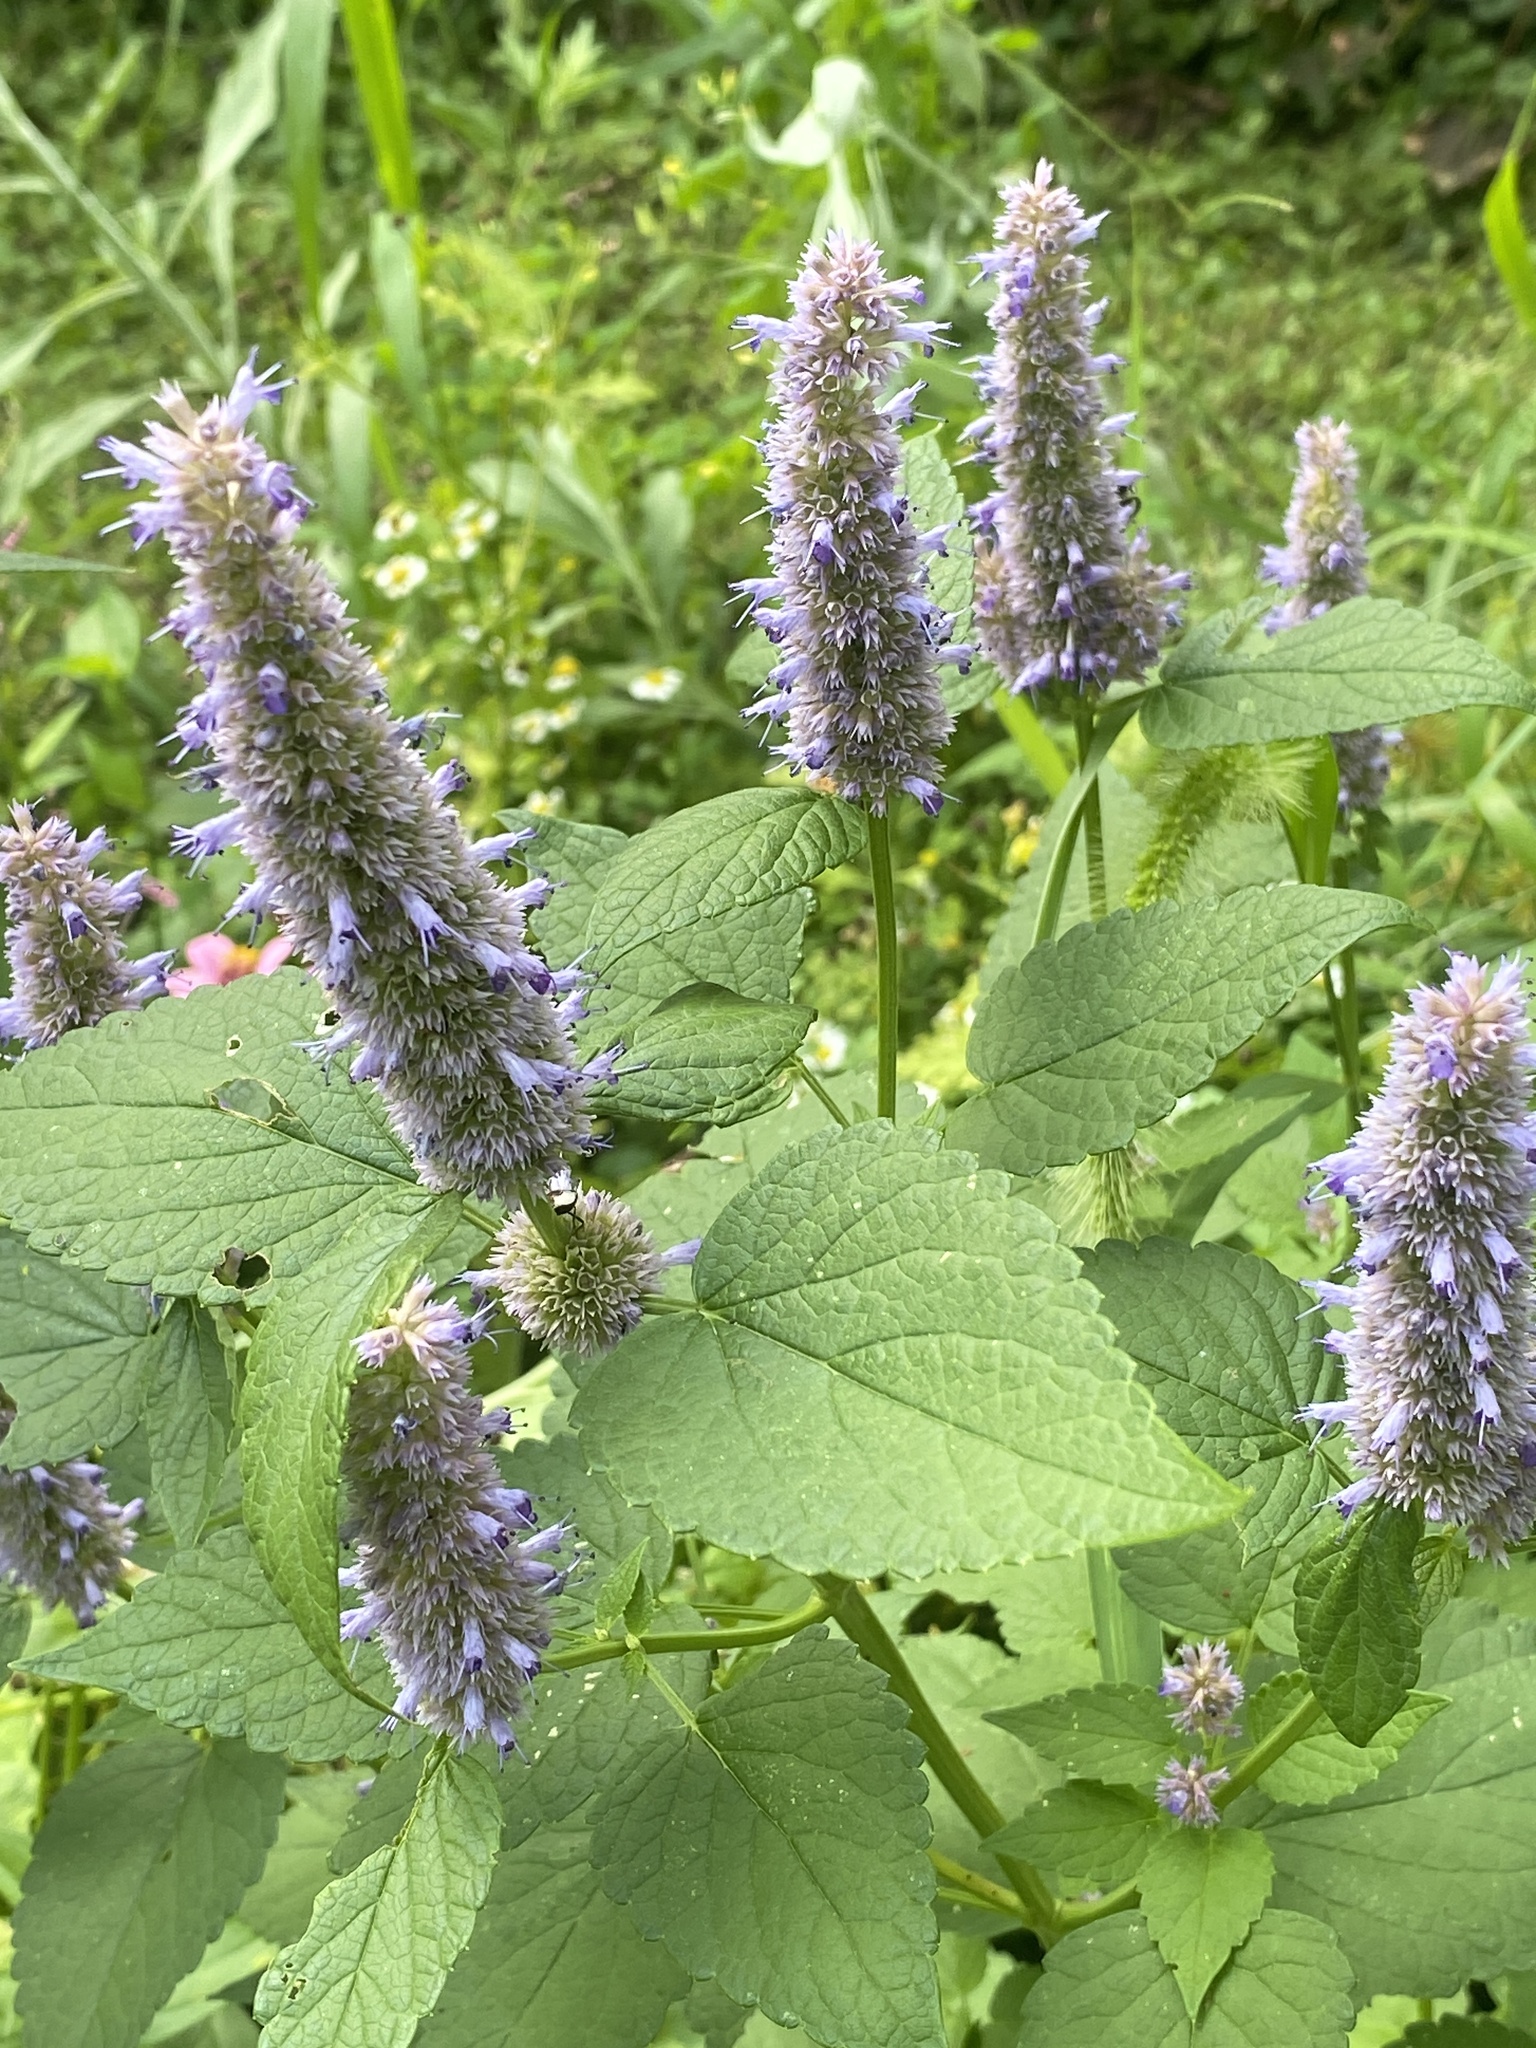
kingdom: Plantae
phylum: Tracheophyta
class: Magnoliopsida
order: Lamiales
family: Lamiaceae
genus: Agastache
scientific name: Agastache foeniculum
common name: Anise hyssop
